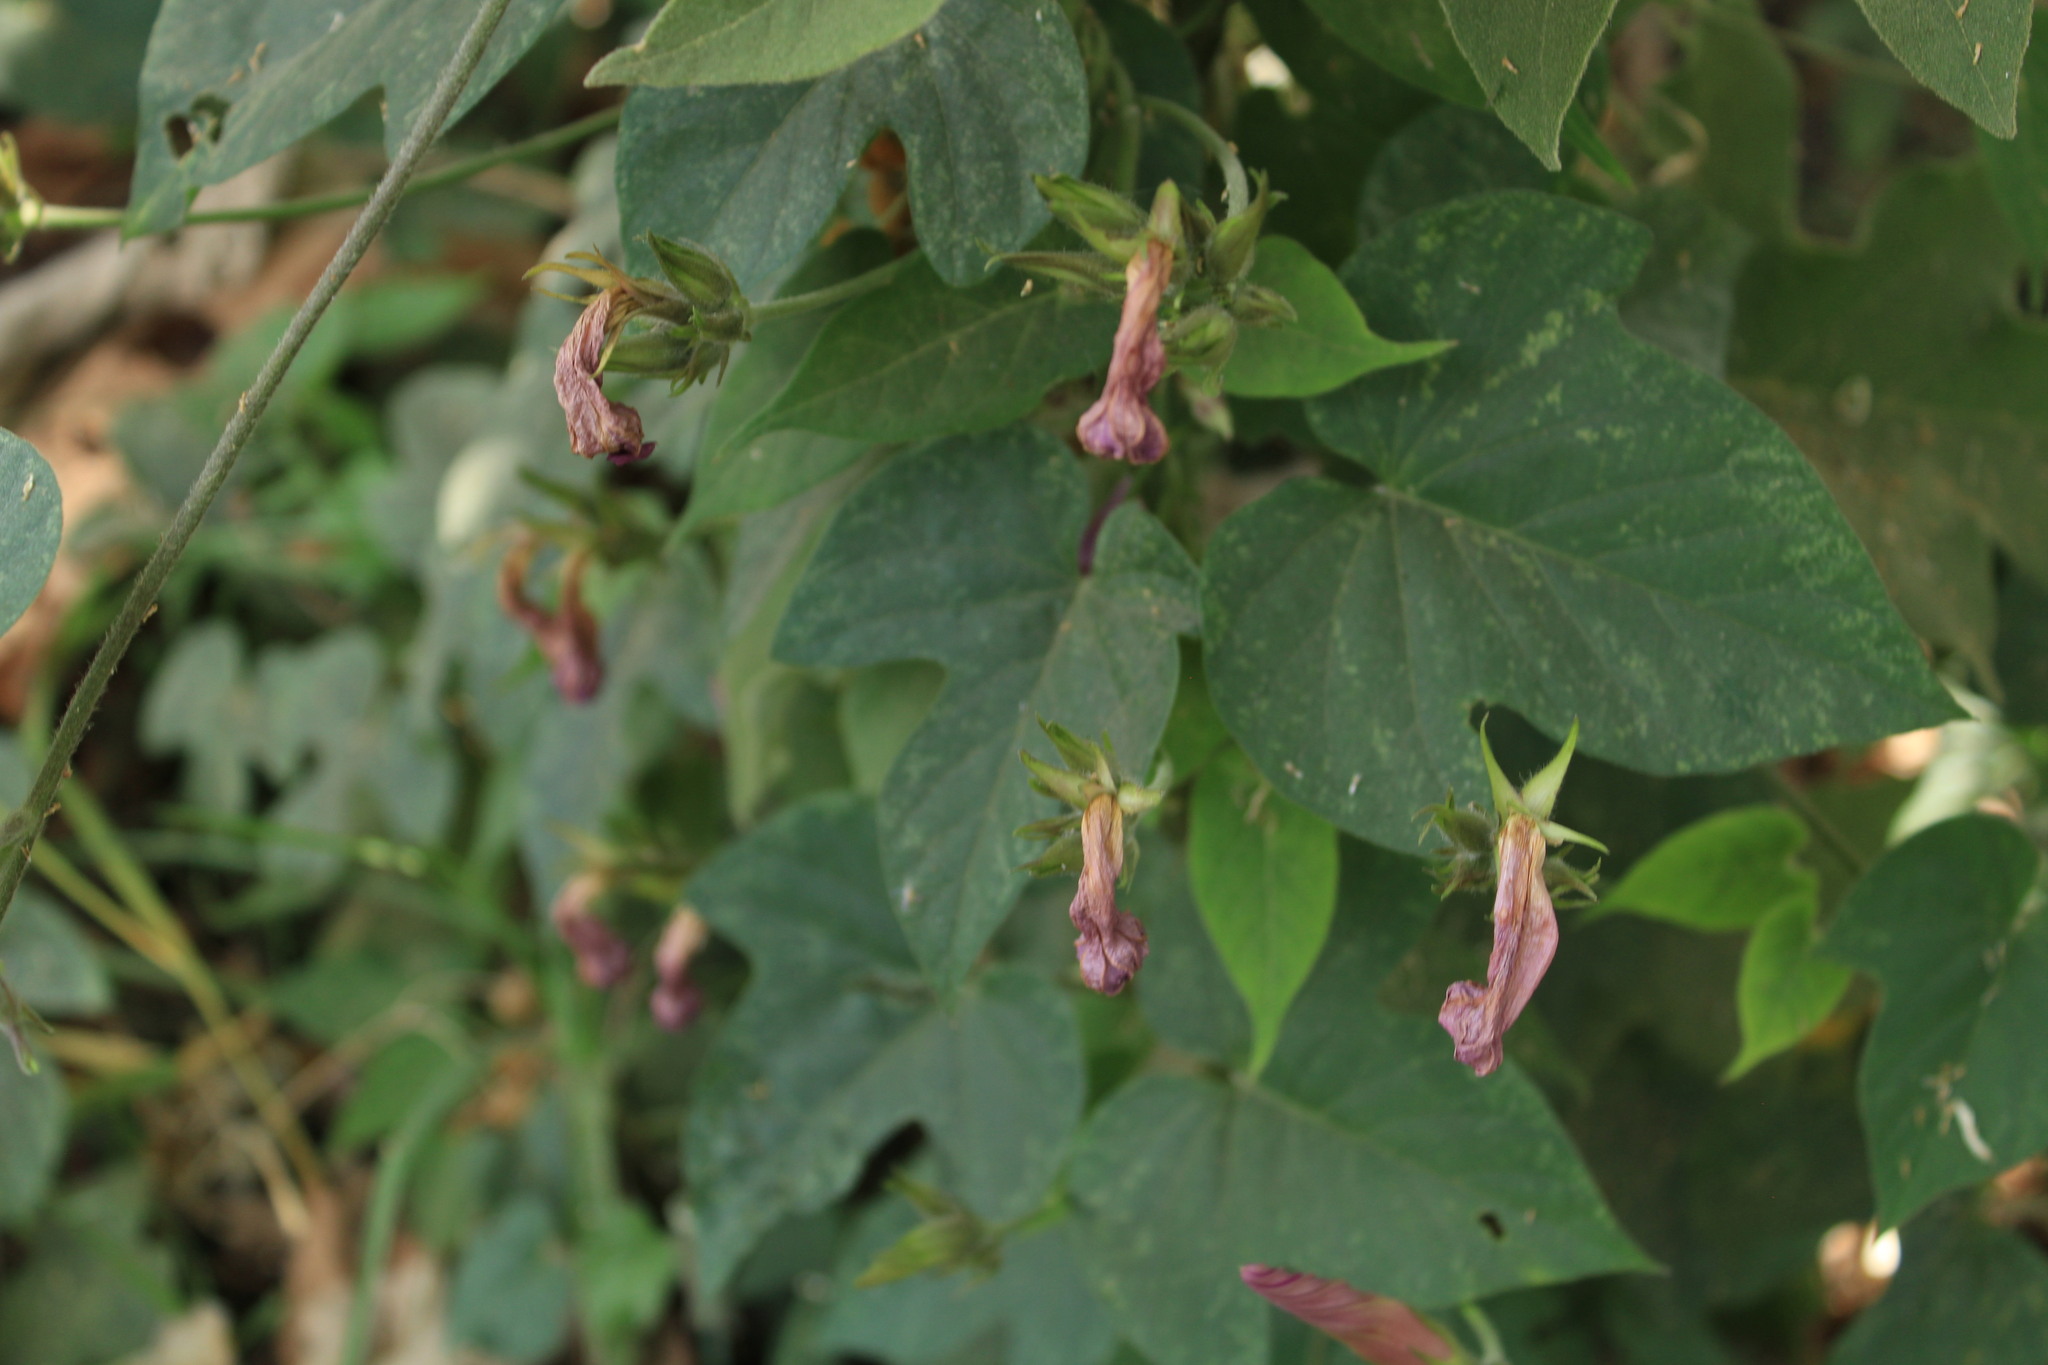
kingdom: Plantae
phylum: Tracheophyta
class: Magnoliopsida
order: Solanales
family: Convolvulaceae
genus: Ipomoea
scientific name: Ipomoea indica
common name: Blue dawnflower
